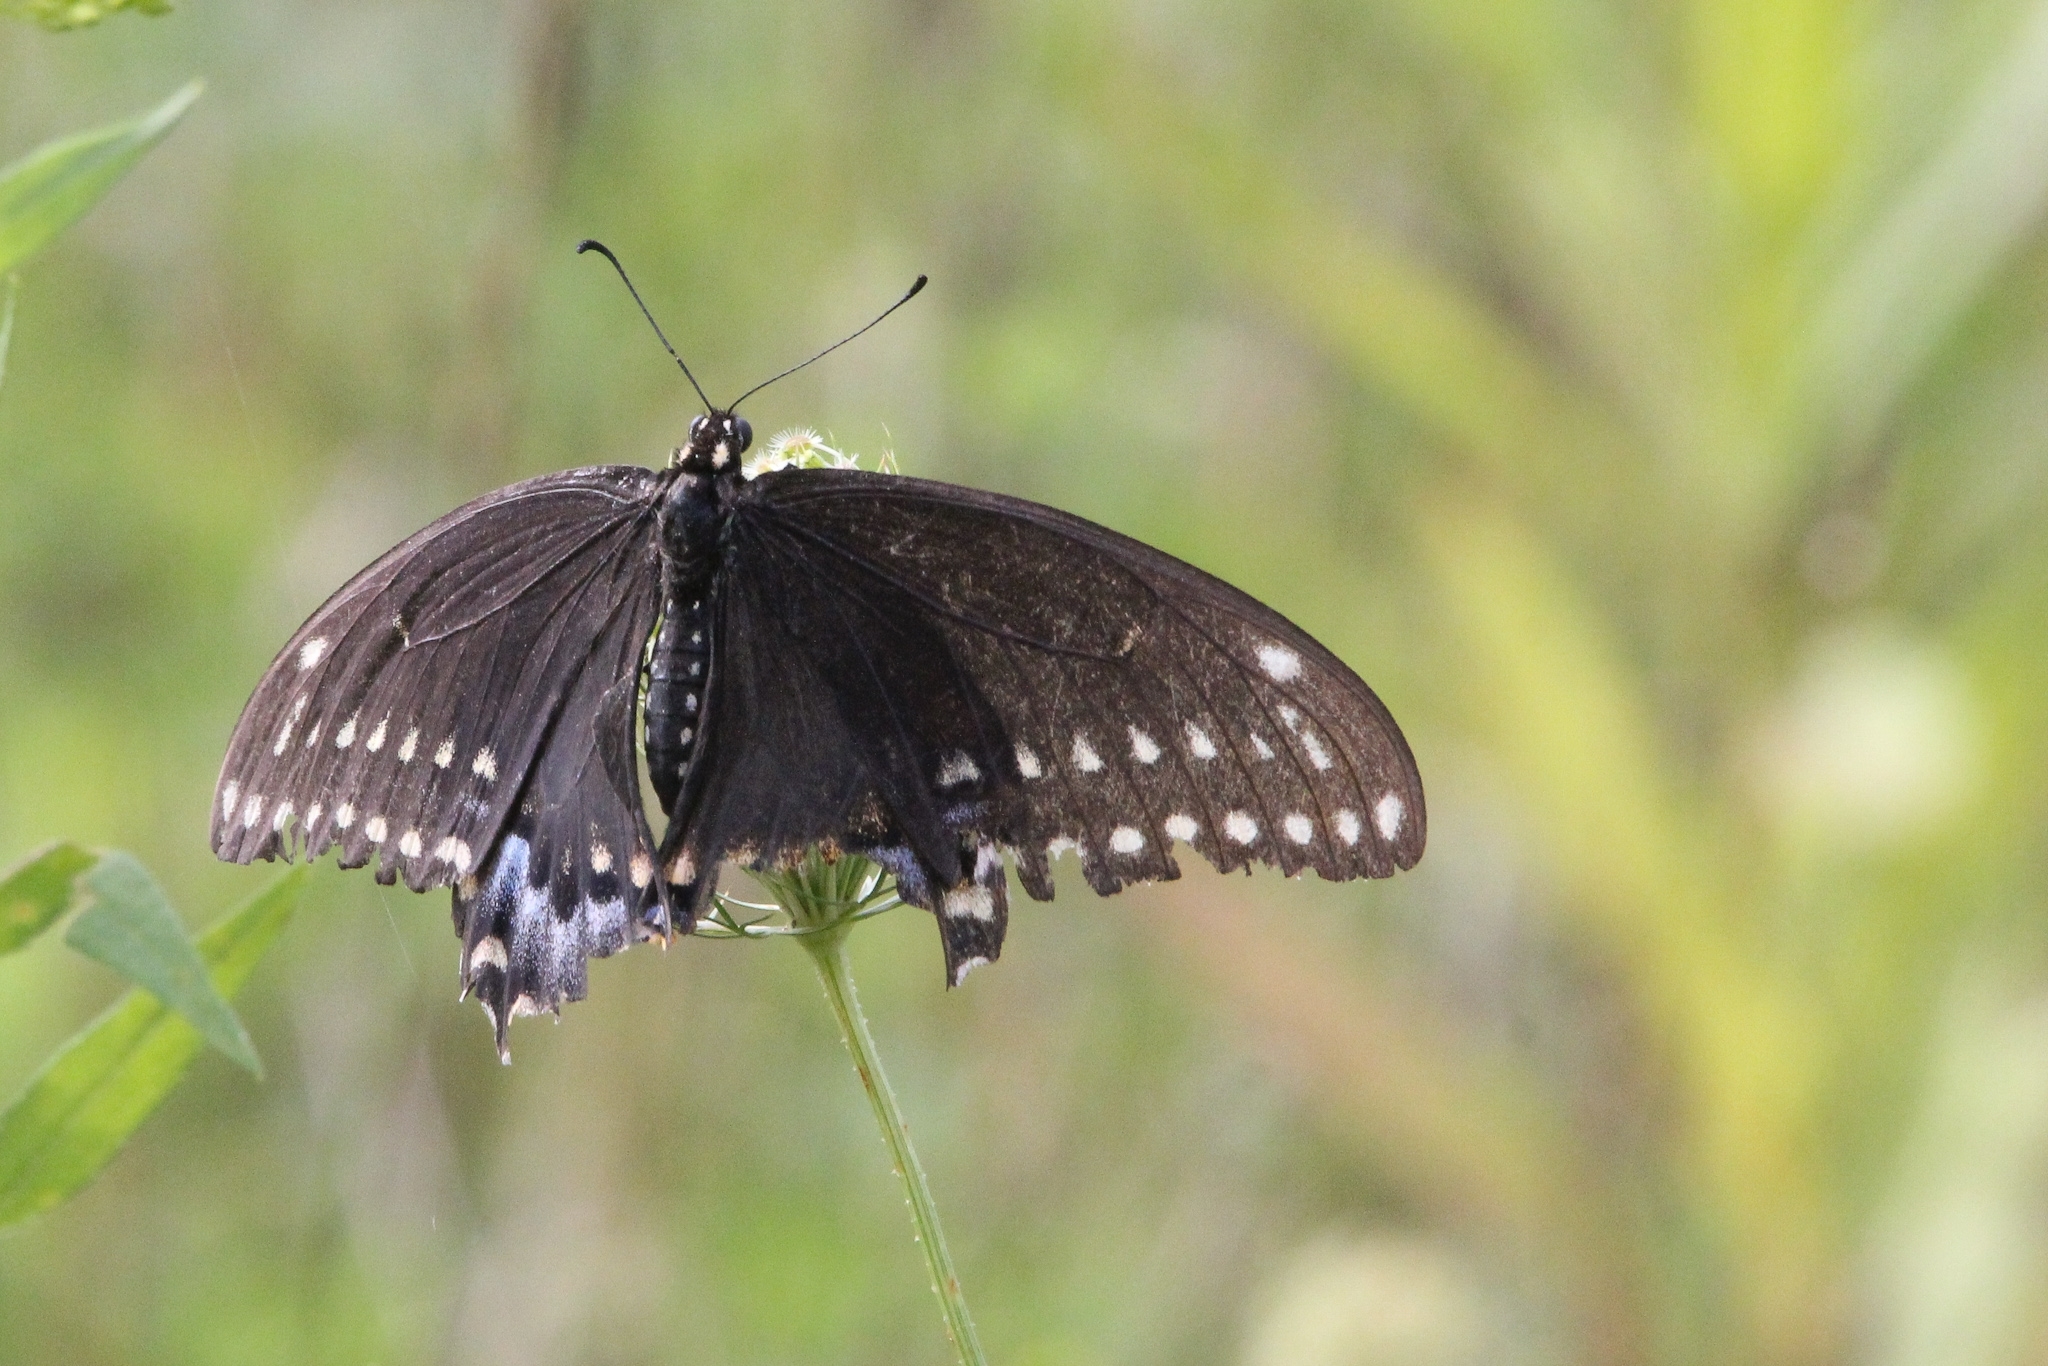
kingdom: Animalia
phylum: Arthropoda
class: Insecta
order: Lepidoptera
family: Papilionidae
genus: Papilio
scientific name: Papilio polyxenes
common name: Black swallowtail
